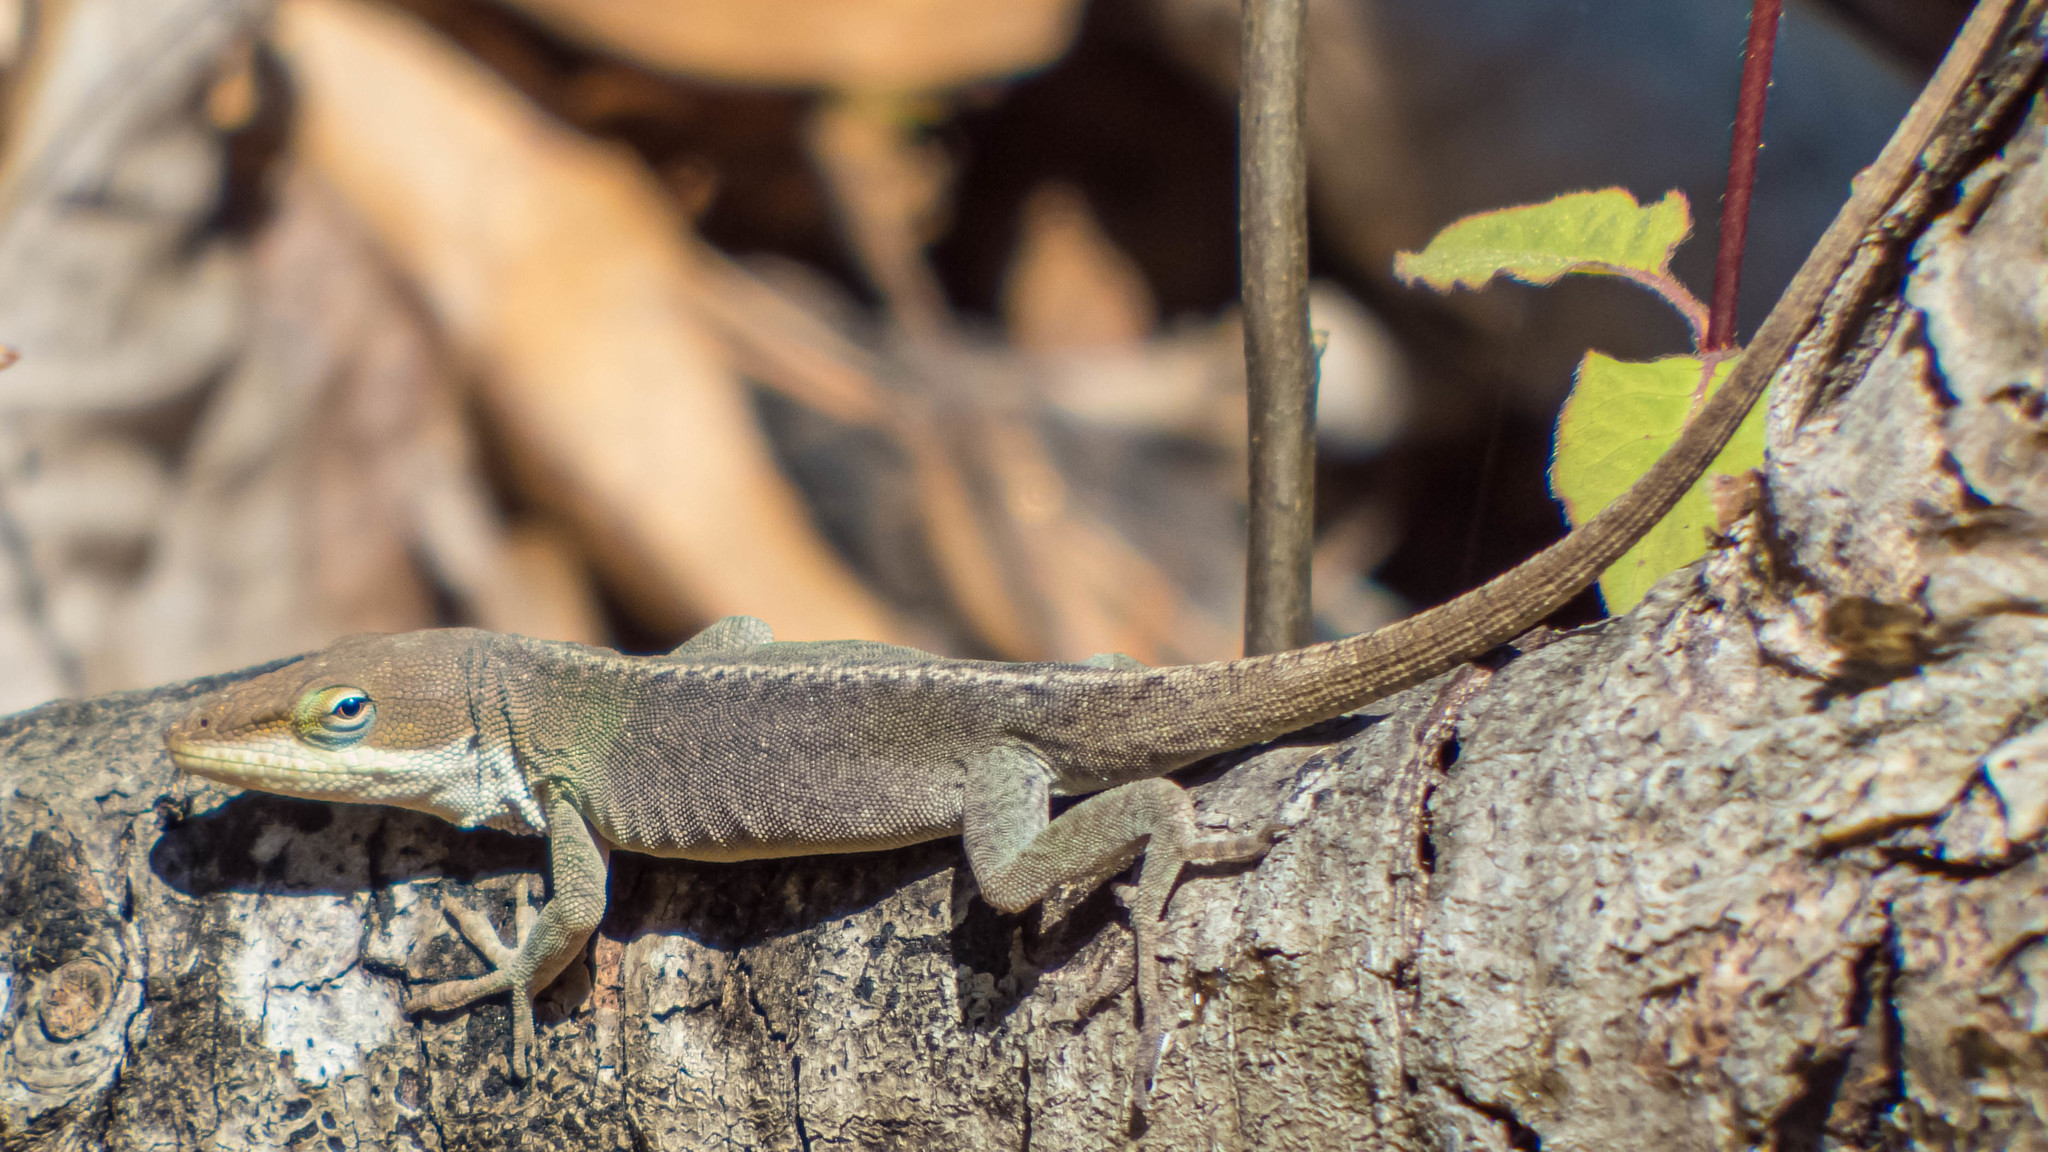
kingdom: Animalia
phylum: Chordata
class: Squamata
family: Dactyloidae
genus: Anolis
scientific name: Anolis carolinensis
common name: Green anole
